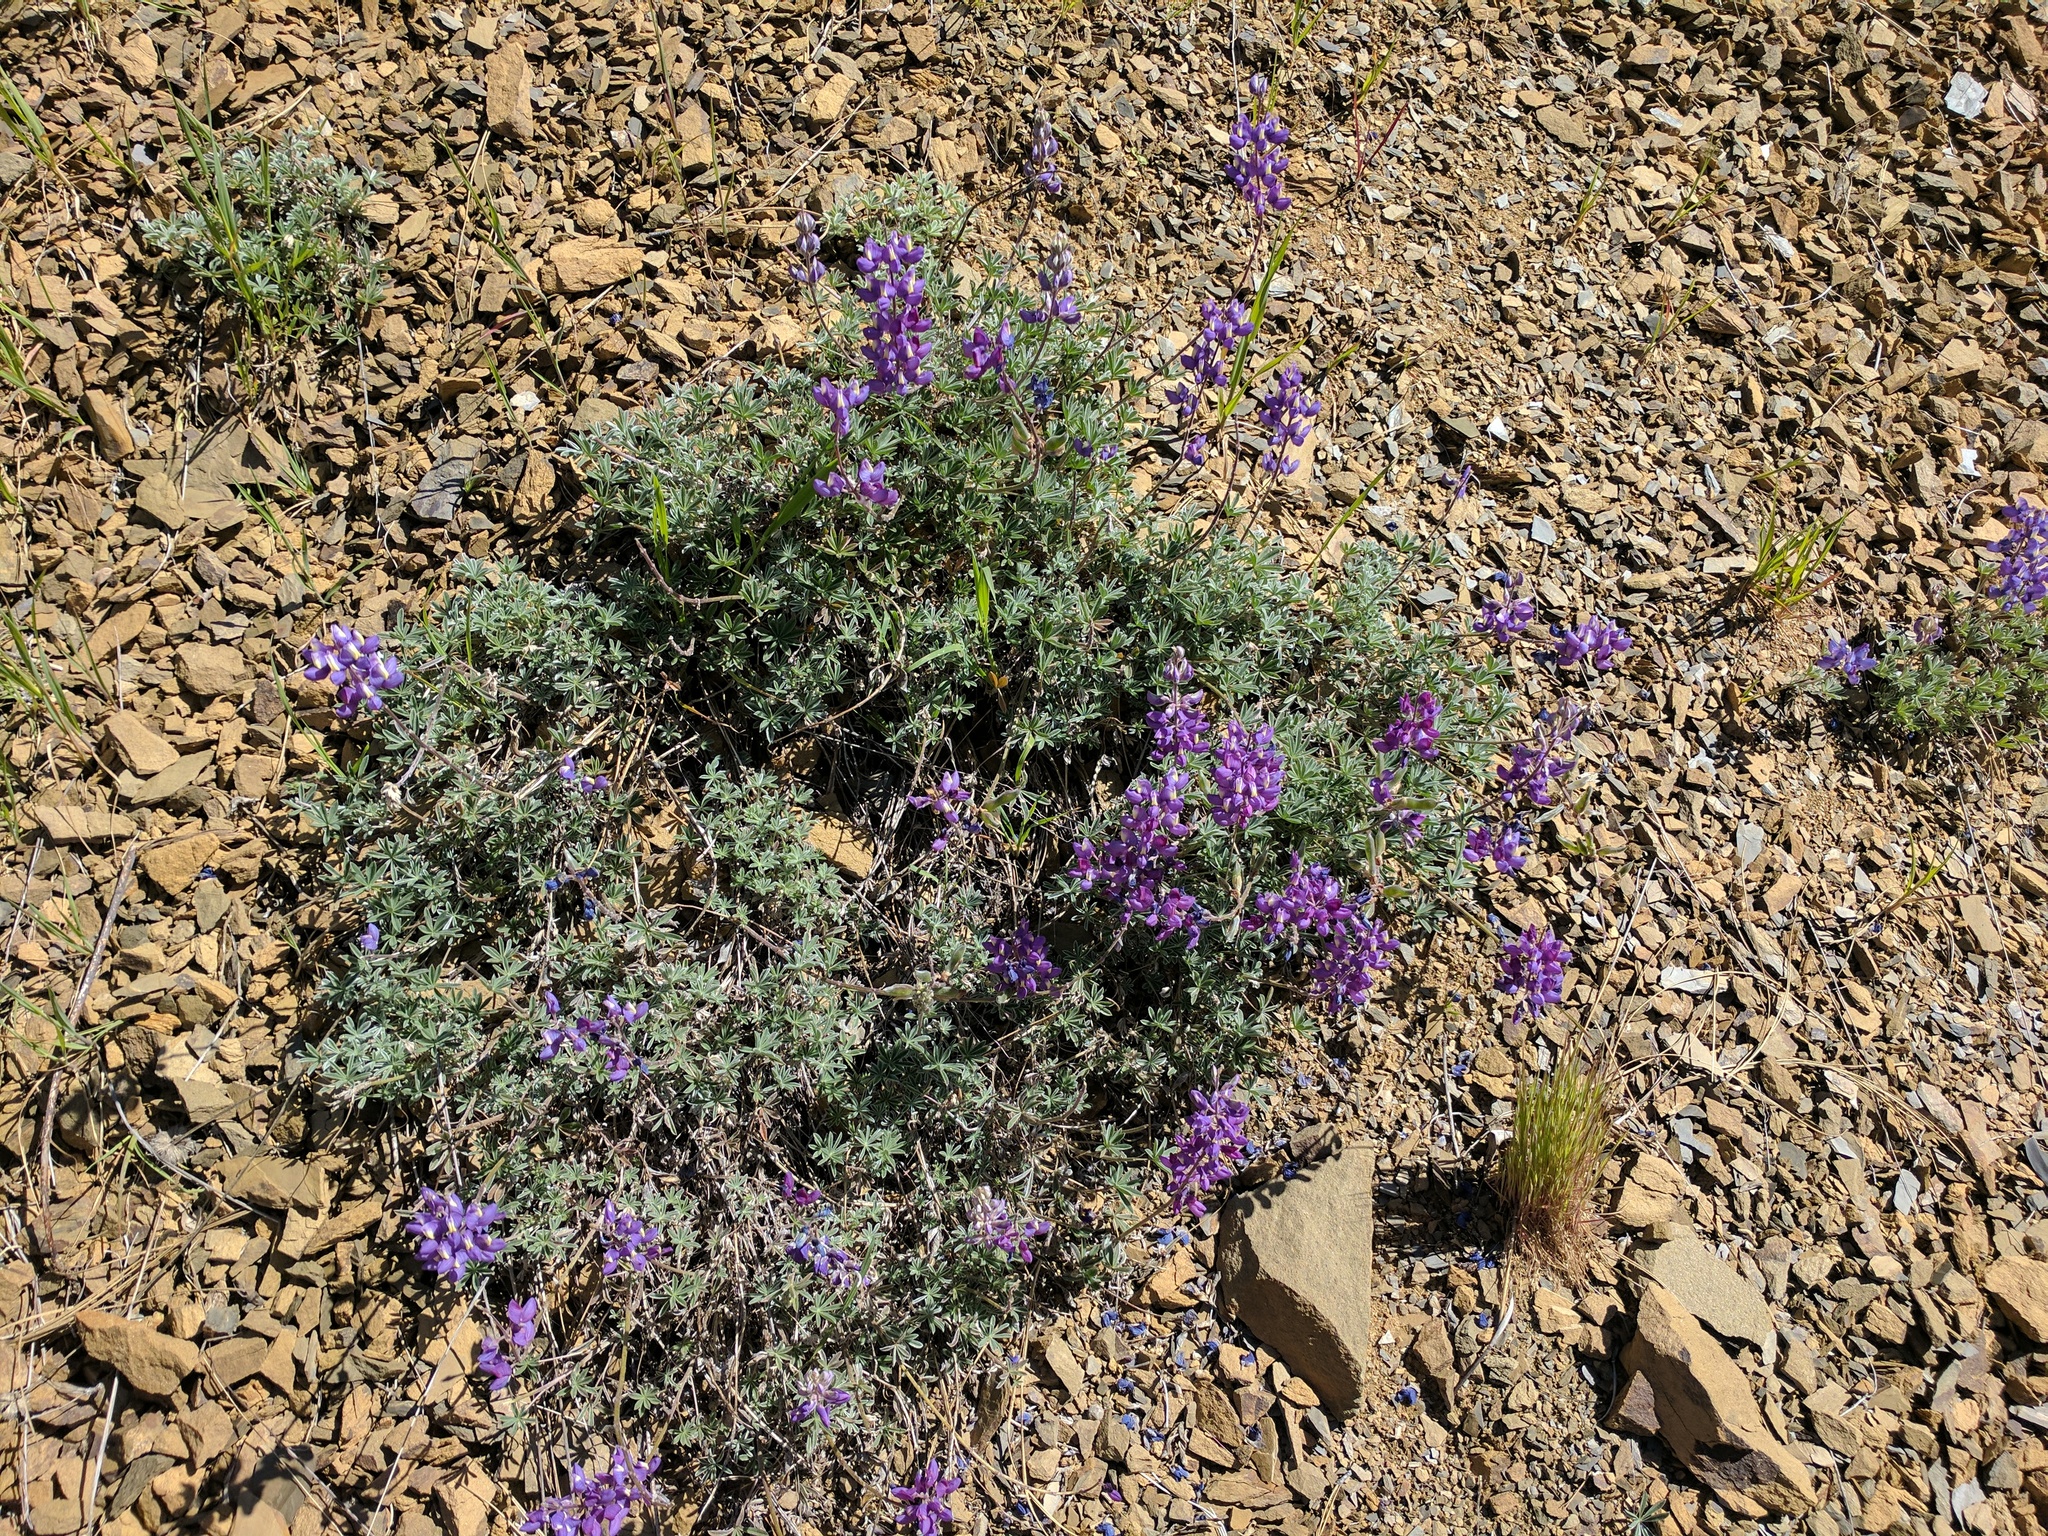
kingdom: Plantae
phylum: Tracheophyta
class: Magnoliopsida
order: Fabales
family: Fabaceae
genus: Lupinus
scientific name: Lupinus albifrons
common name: Foothill lupine
